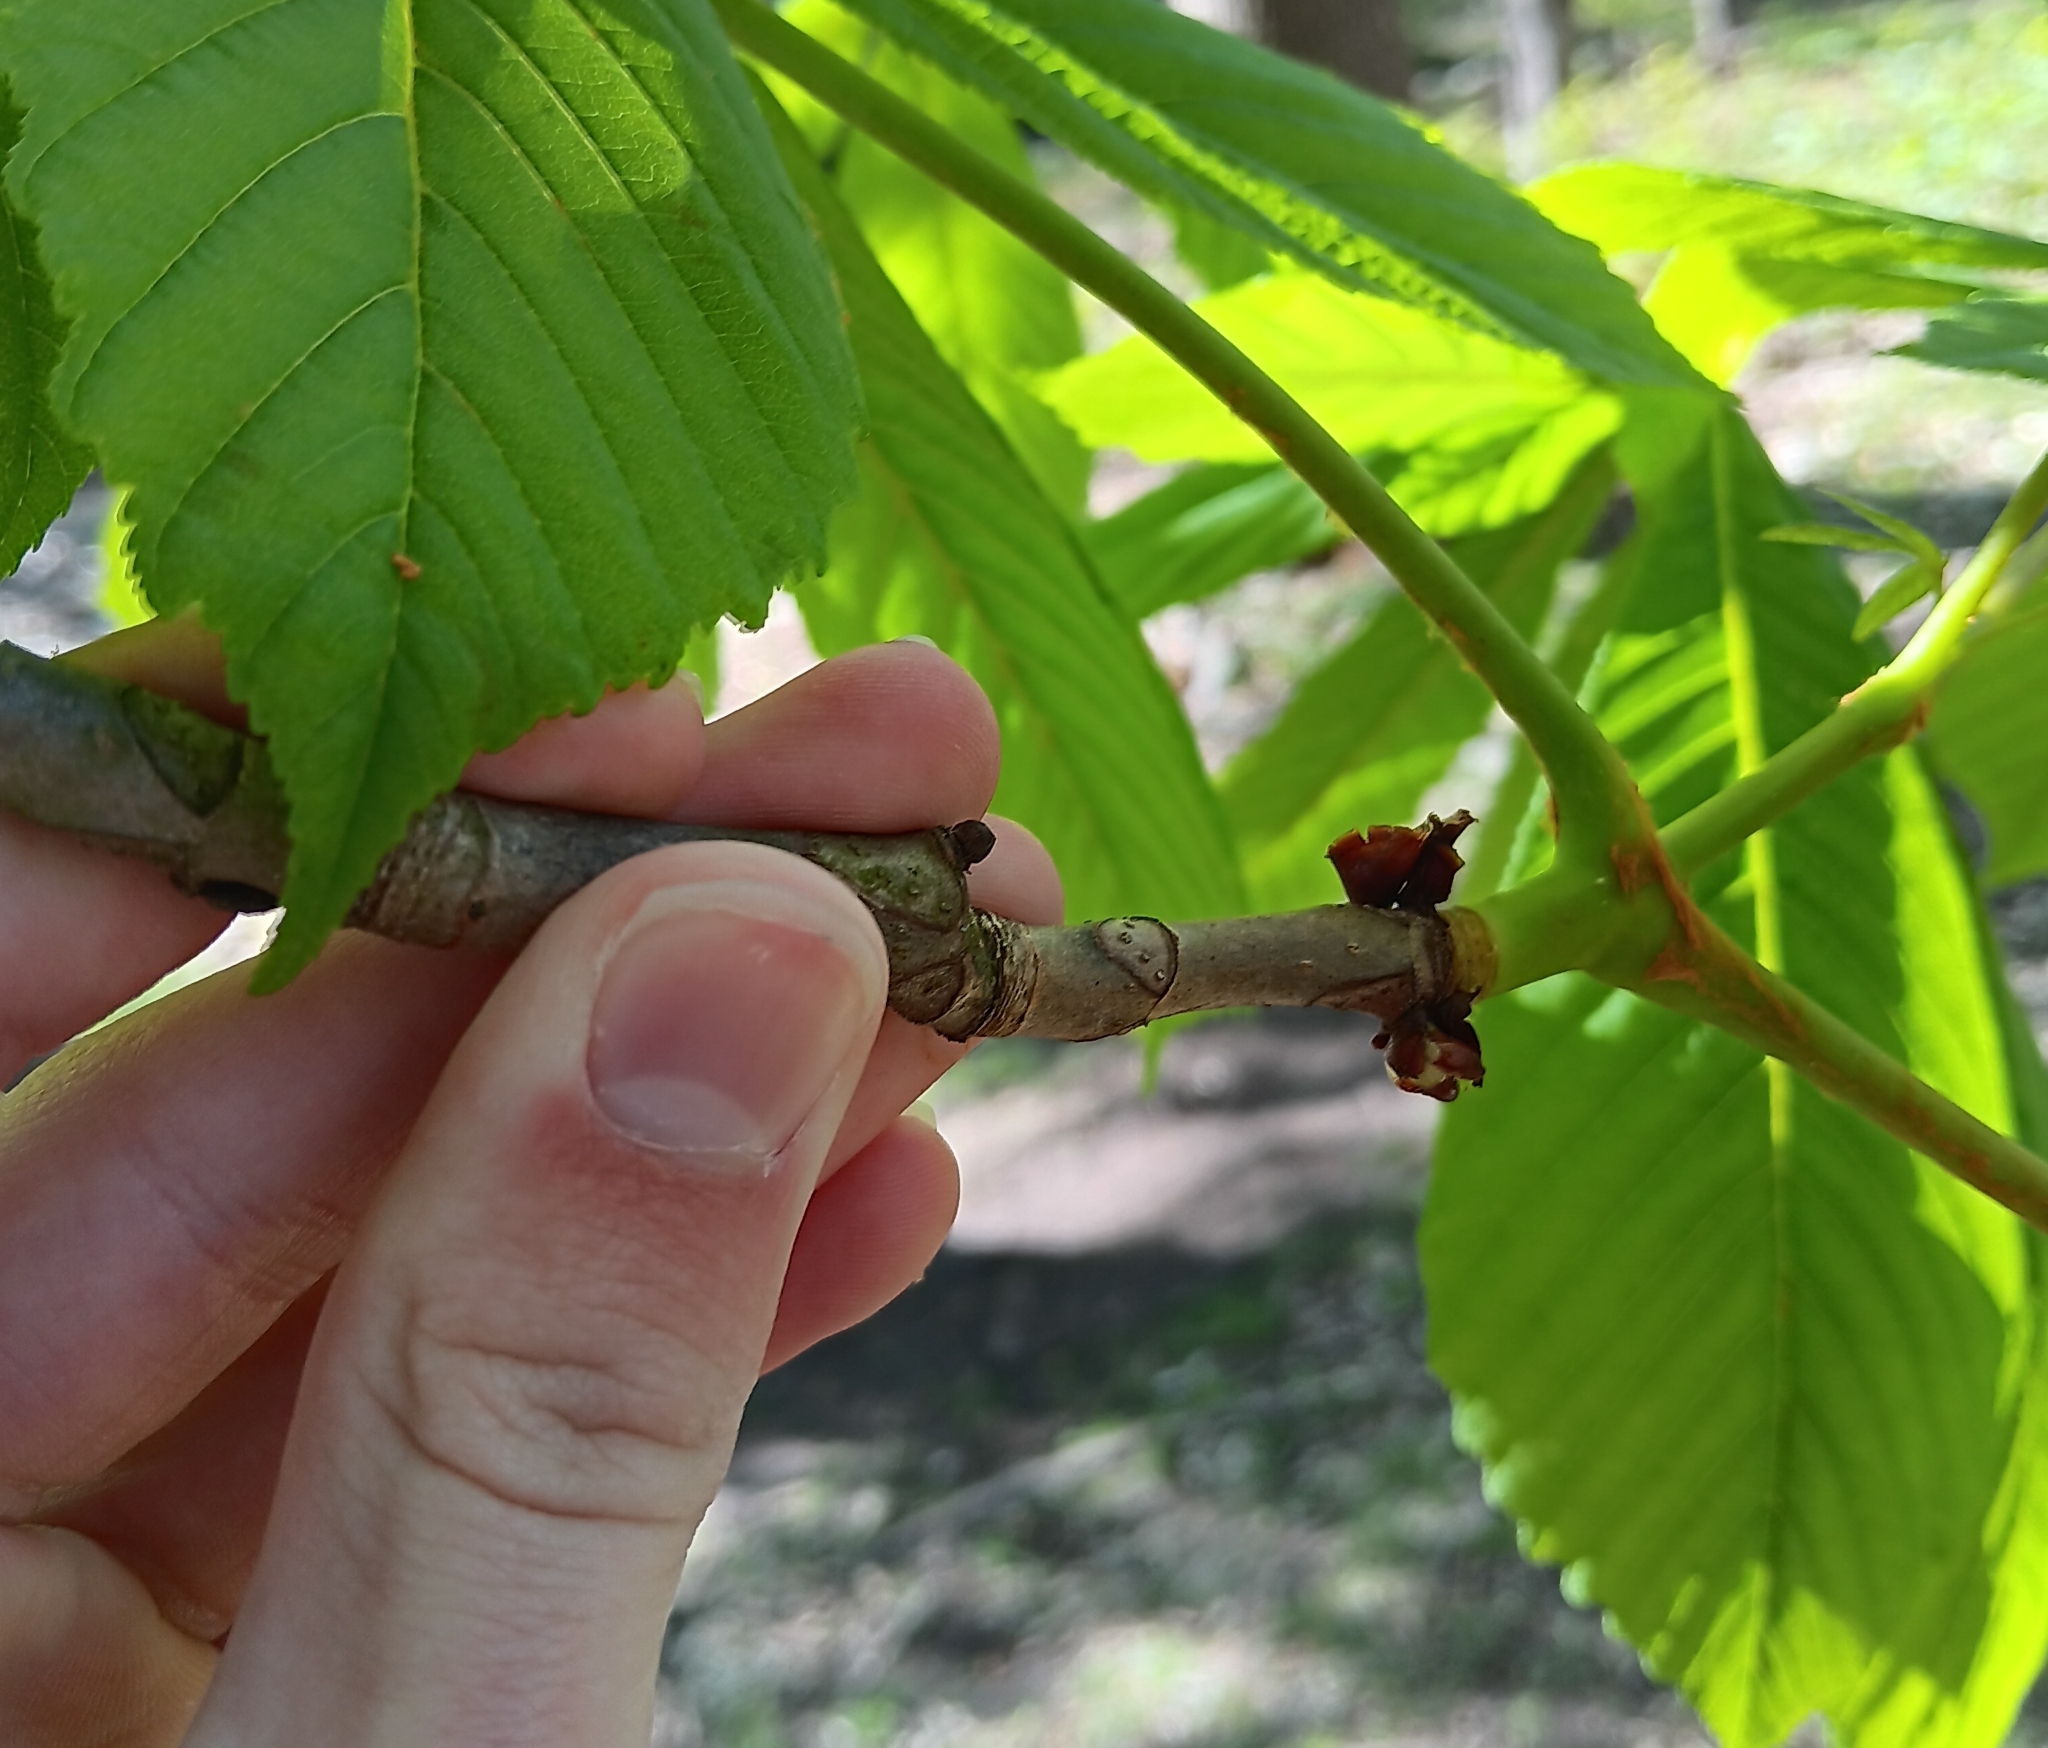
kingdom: Plantae
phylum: Tracheophyta
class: Magnoliopsida
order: Sapindales
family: Sapindaceae
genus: Aesculus
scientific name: Aesculus hippocastanum
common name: Horse-chestnut
